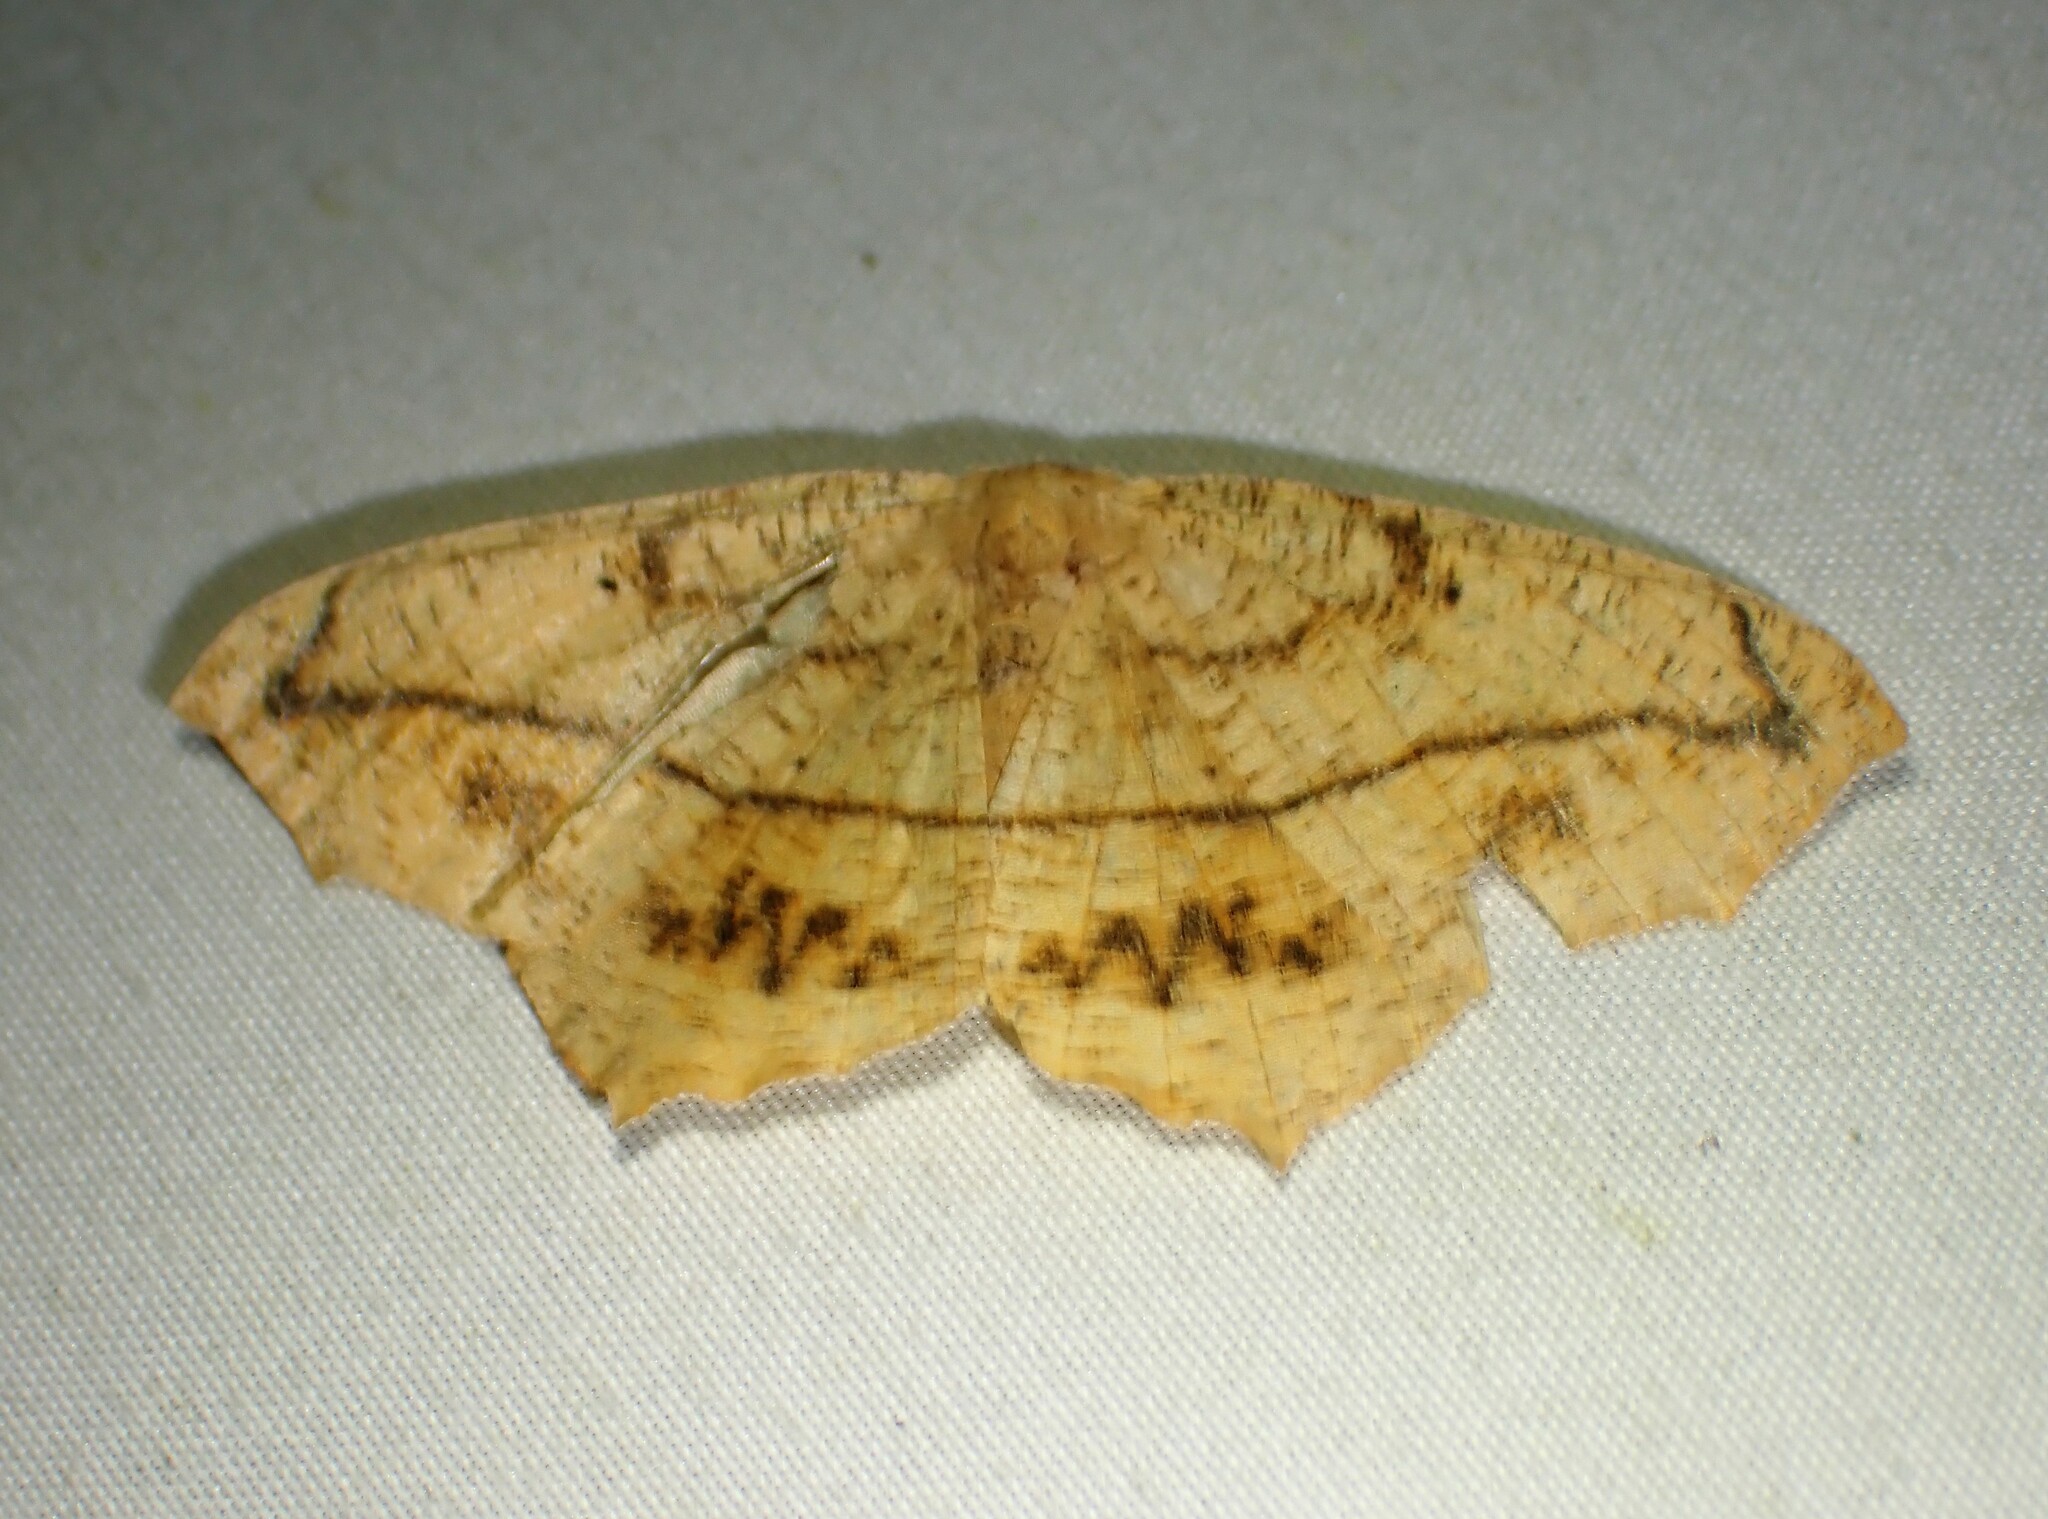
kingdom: Animalia
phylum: Arthropoda
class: Insecta
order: Lepidoptera
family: Geometridae
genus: Prochoerodes
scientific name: Prochoerodes lineola
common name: Large maple spanworm
